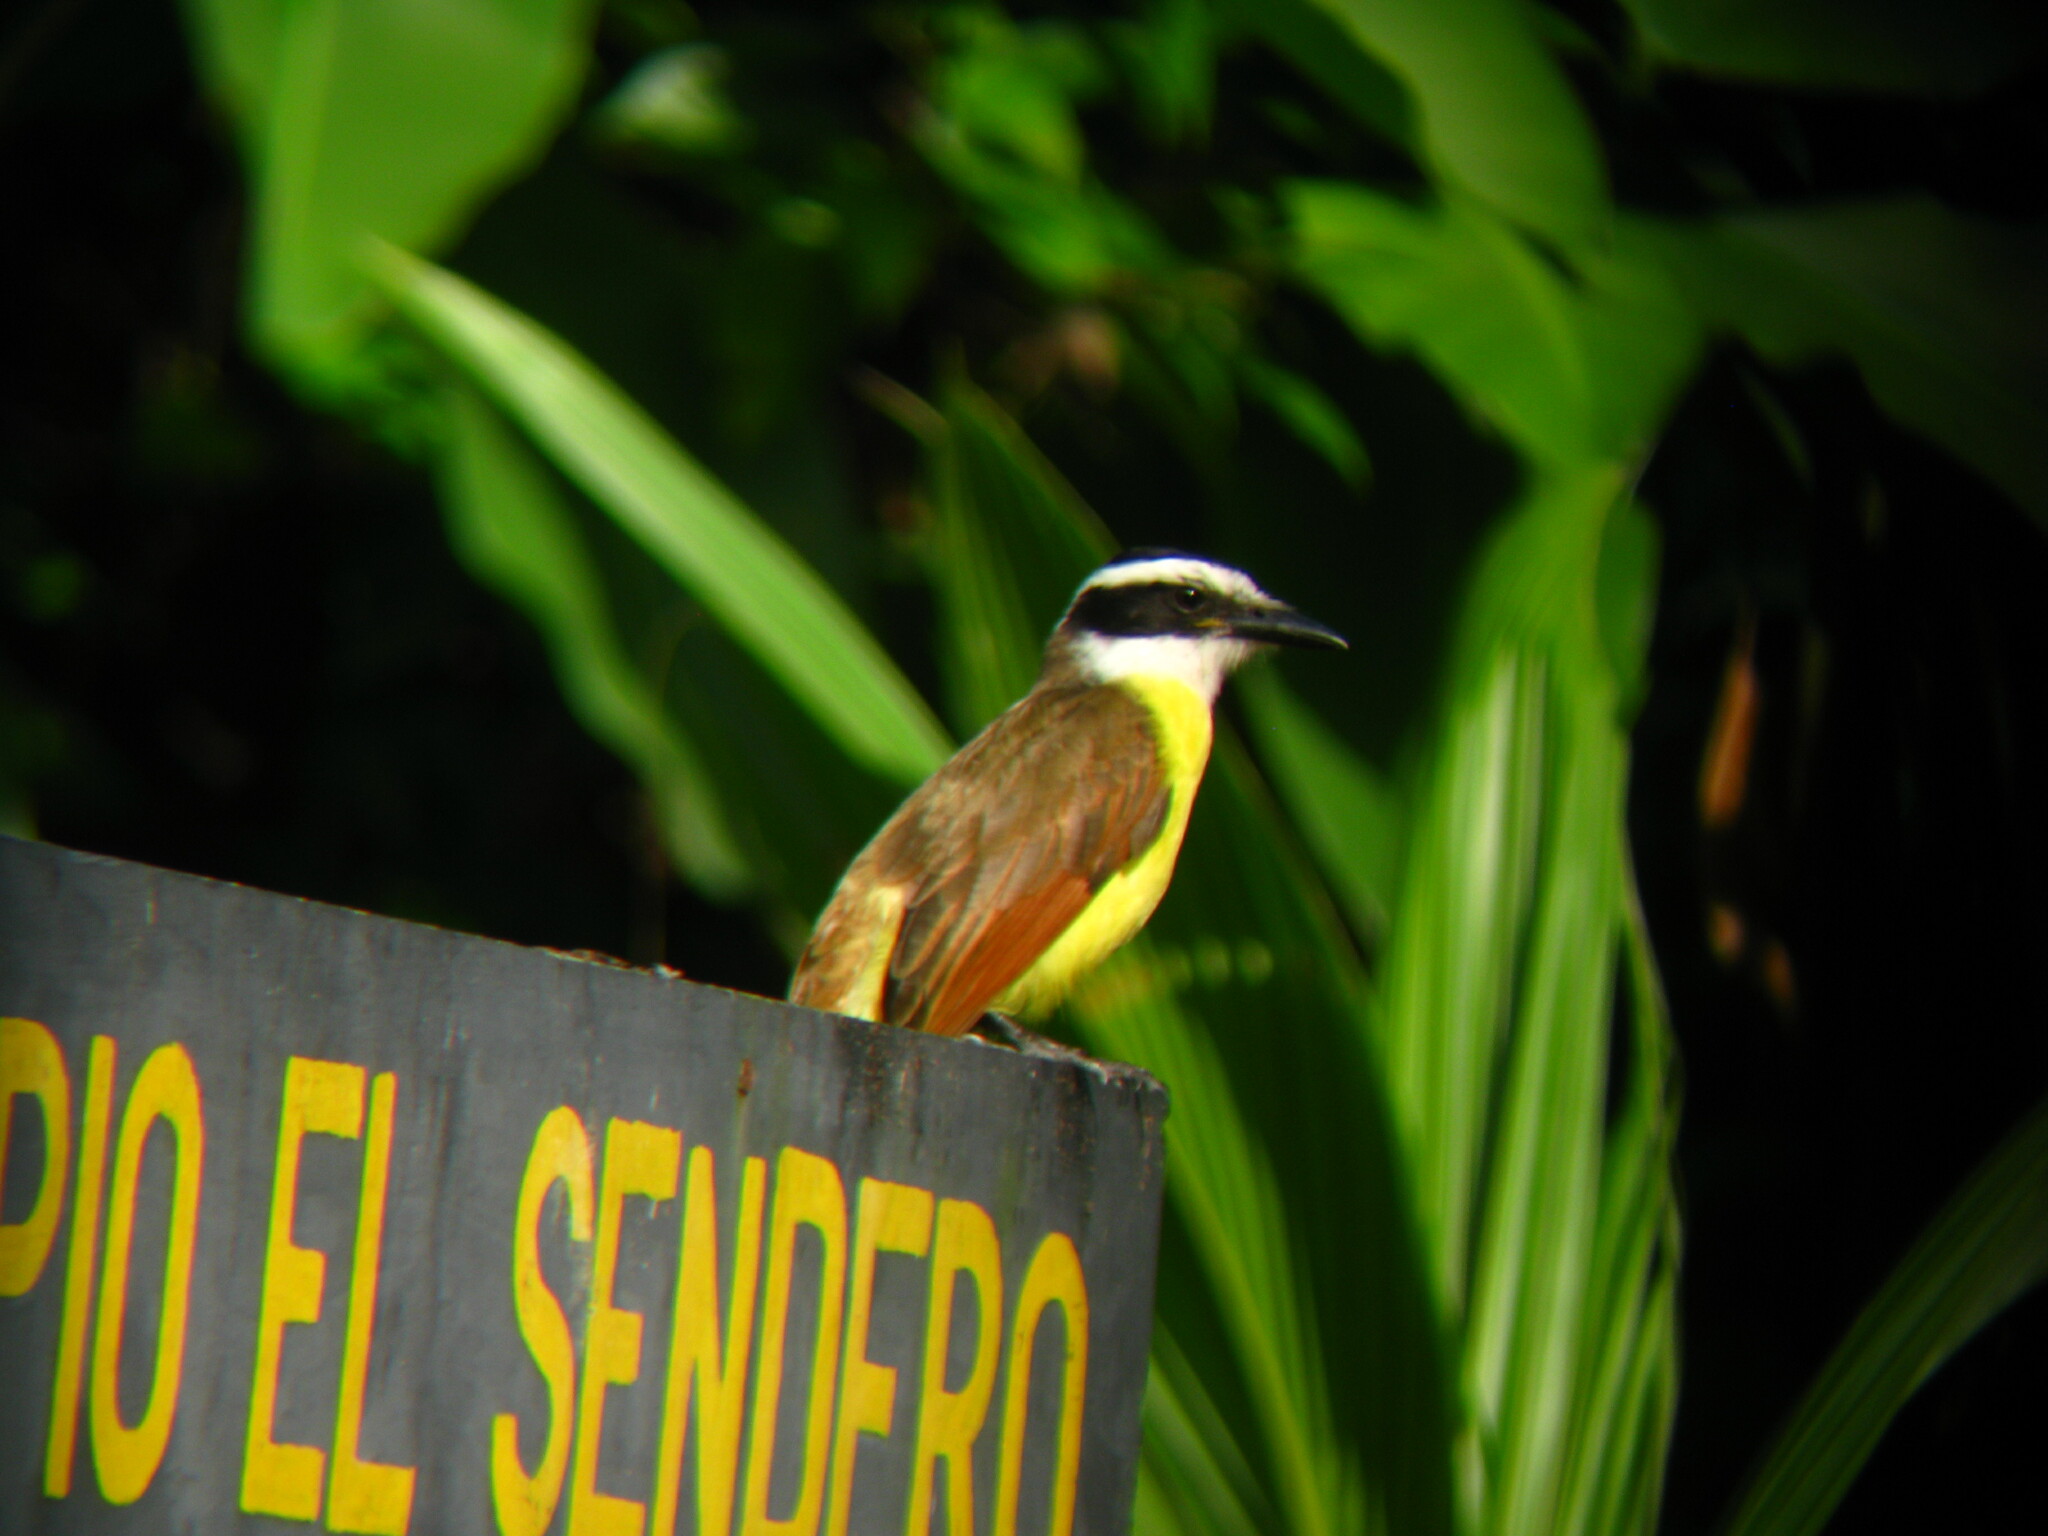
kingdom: Animalia
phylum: Chordata
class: Aves
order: Passeriformes
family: Tyrannidae
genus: Pitangus
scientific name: Pitangus sulphuratus
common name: Great kiskadee
